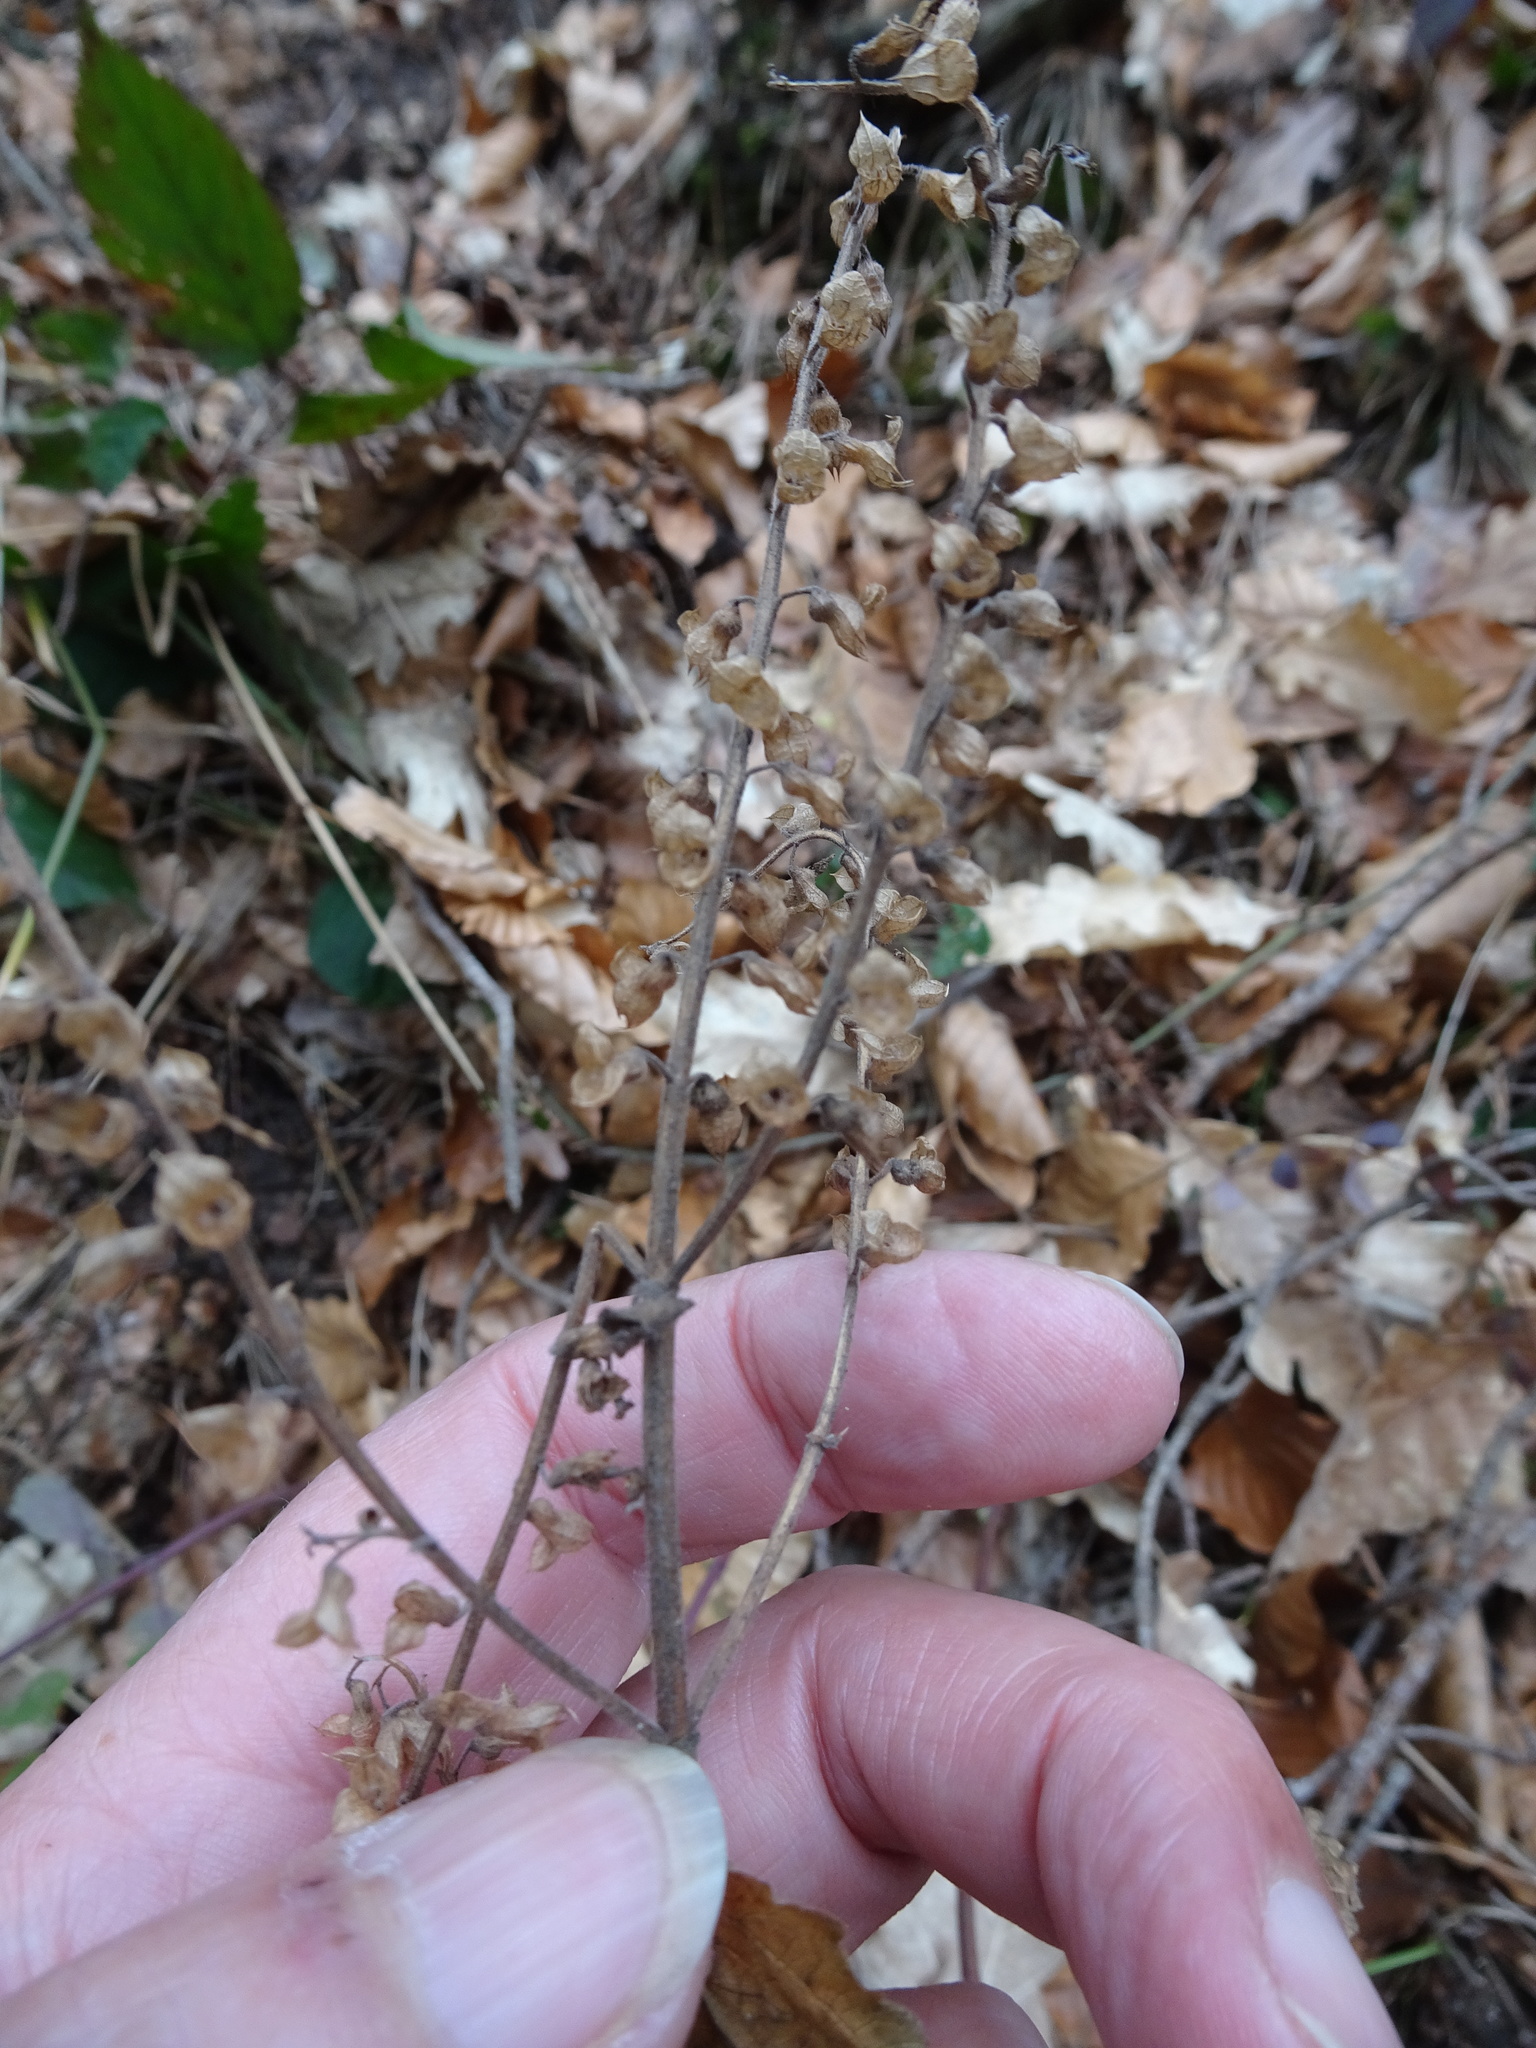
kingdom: Plantae
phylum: Tracheophyta
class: Magnoliopsida
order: Lamiales
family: Lamiaceae
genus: Teucrium
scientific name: Teucrium scorodonia
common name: Woodland germander
